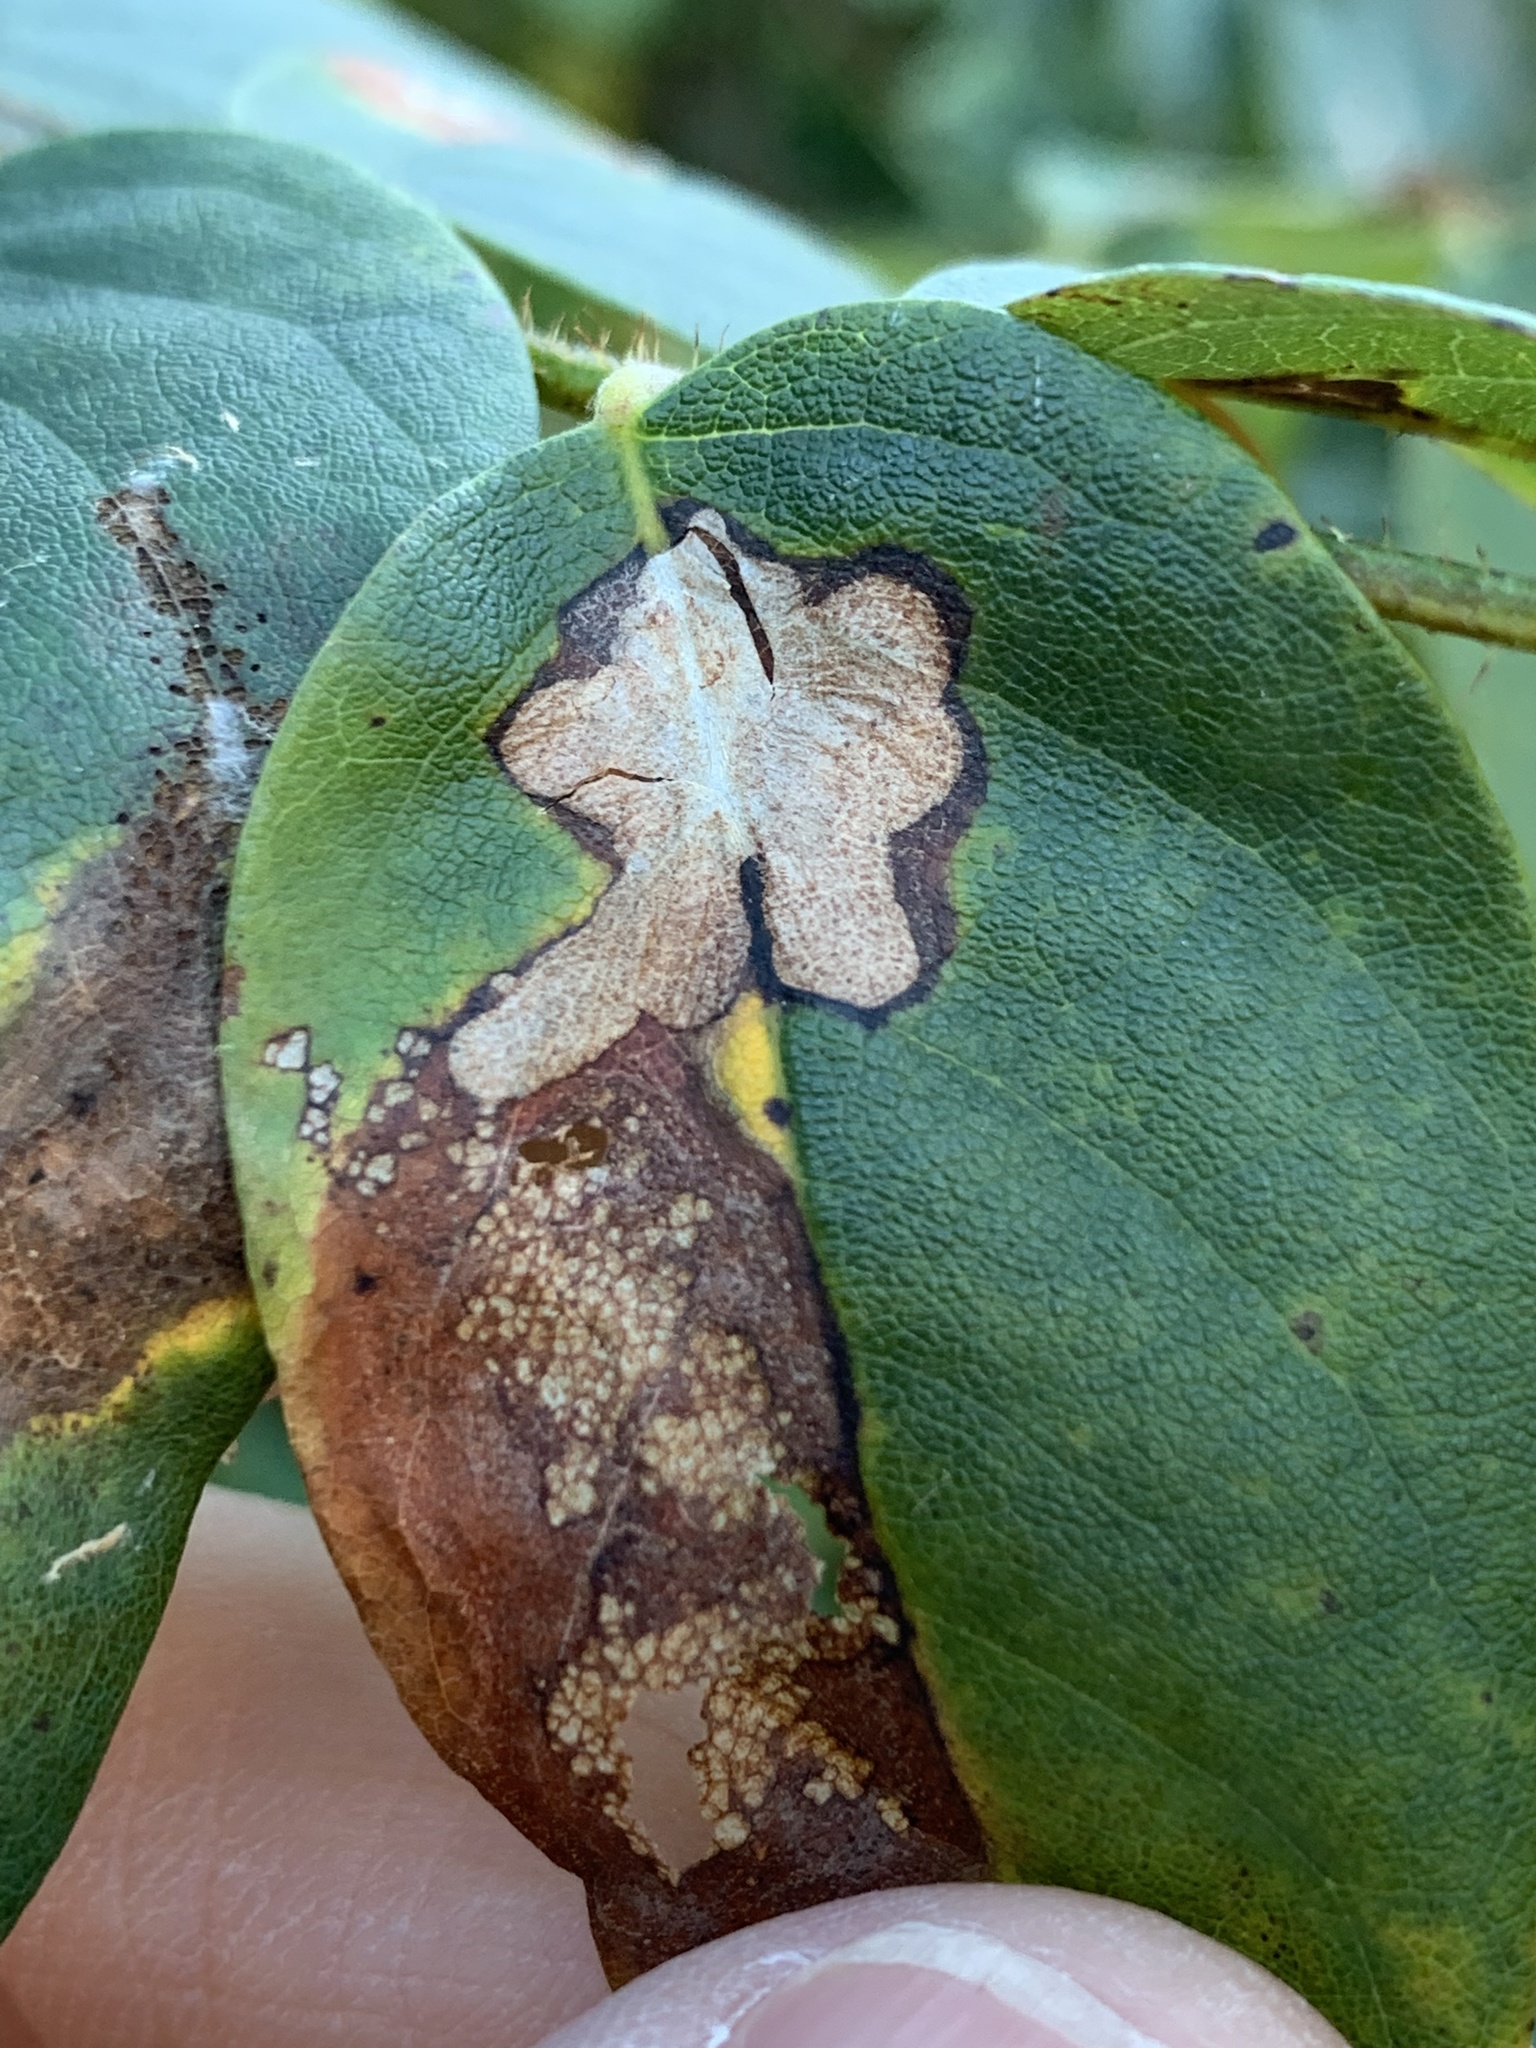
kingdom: Animalia
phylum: Arthropoda
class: Insecta
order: Lepidoptera
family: Gracillariidae
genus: Parectopa
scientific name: Parectopa robiniella
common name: Locust digitate leafminer
